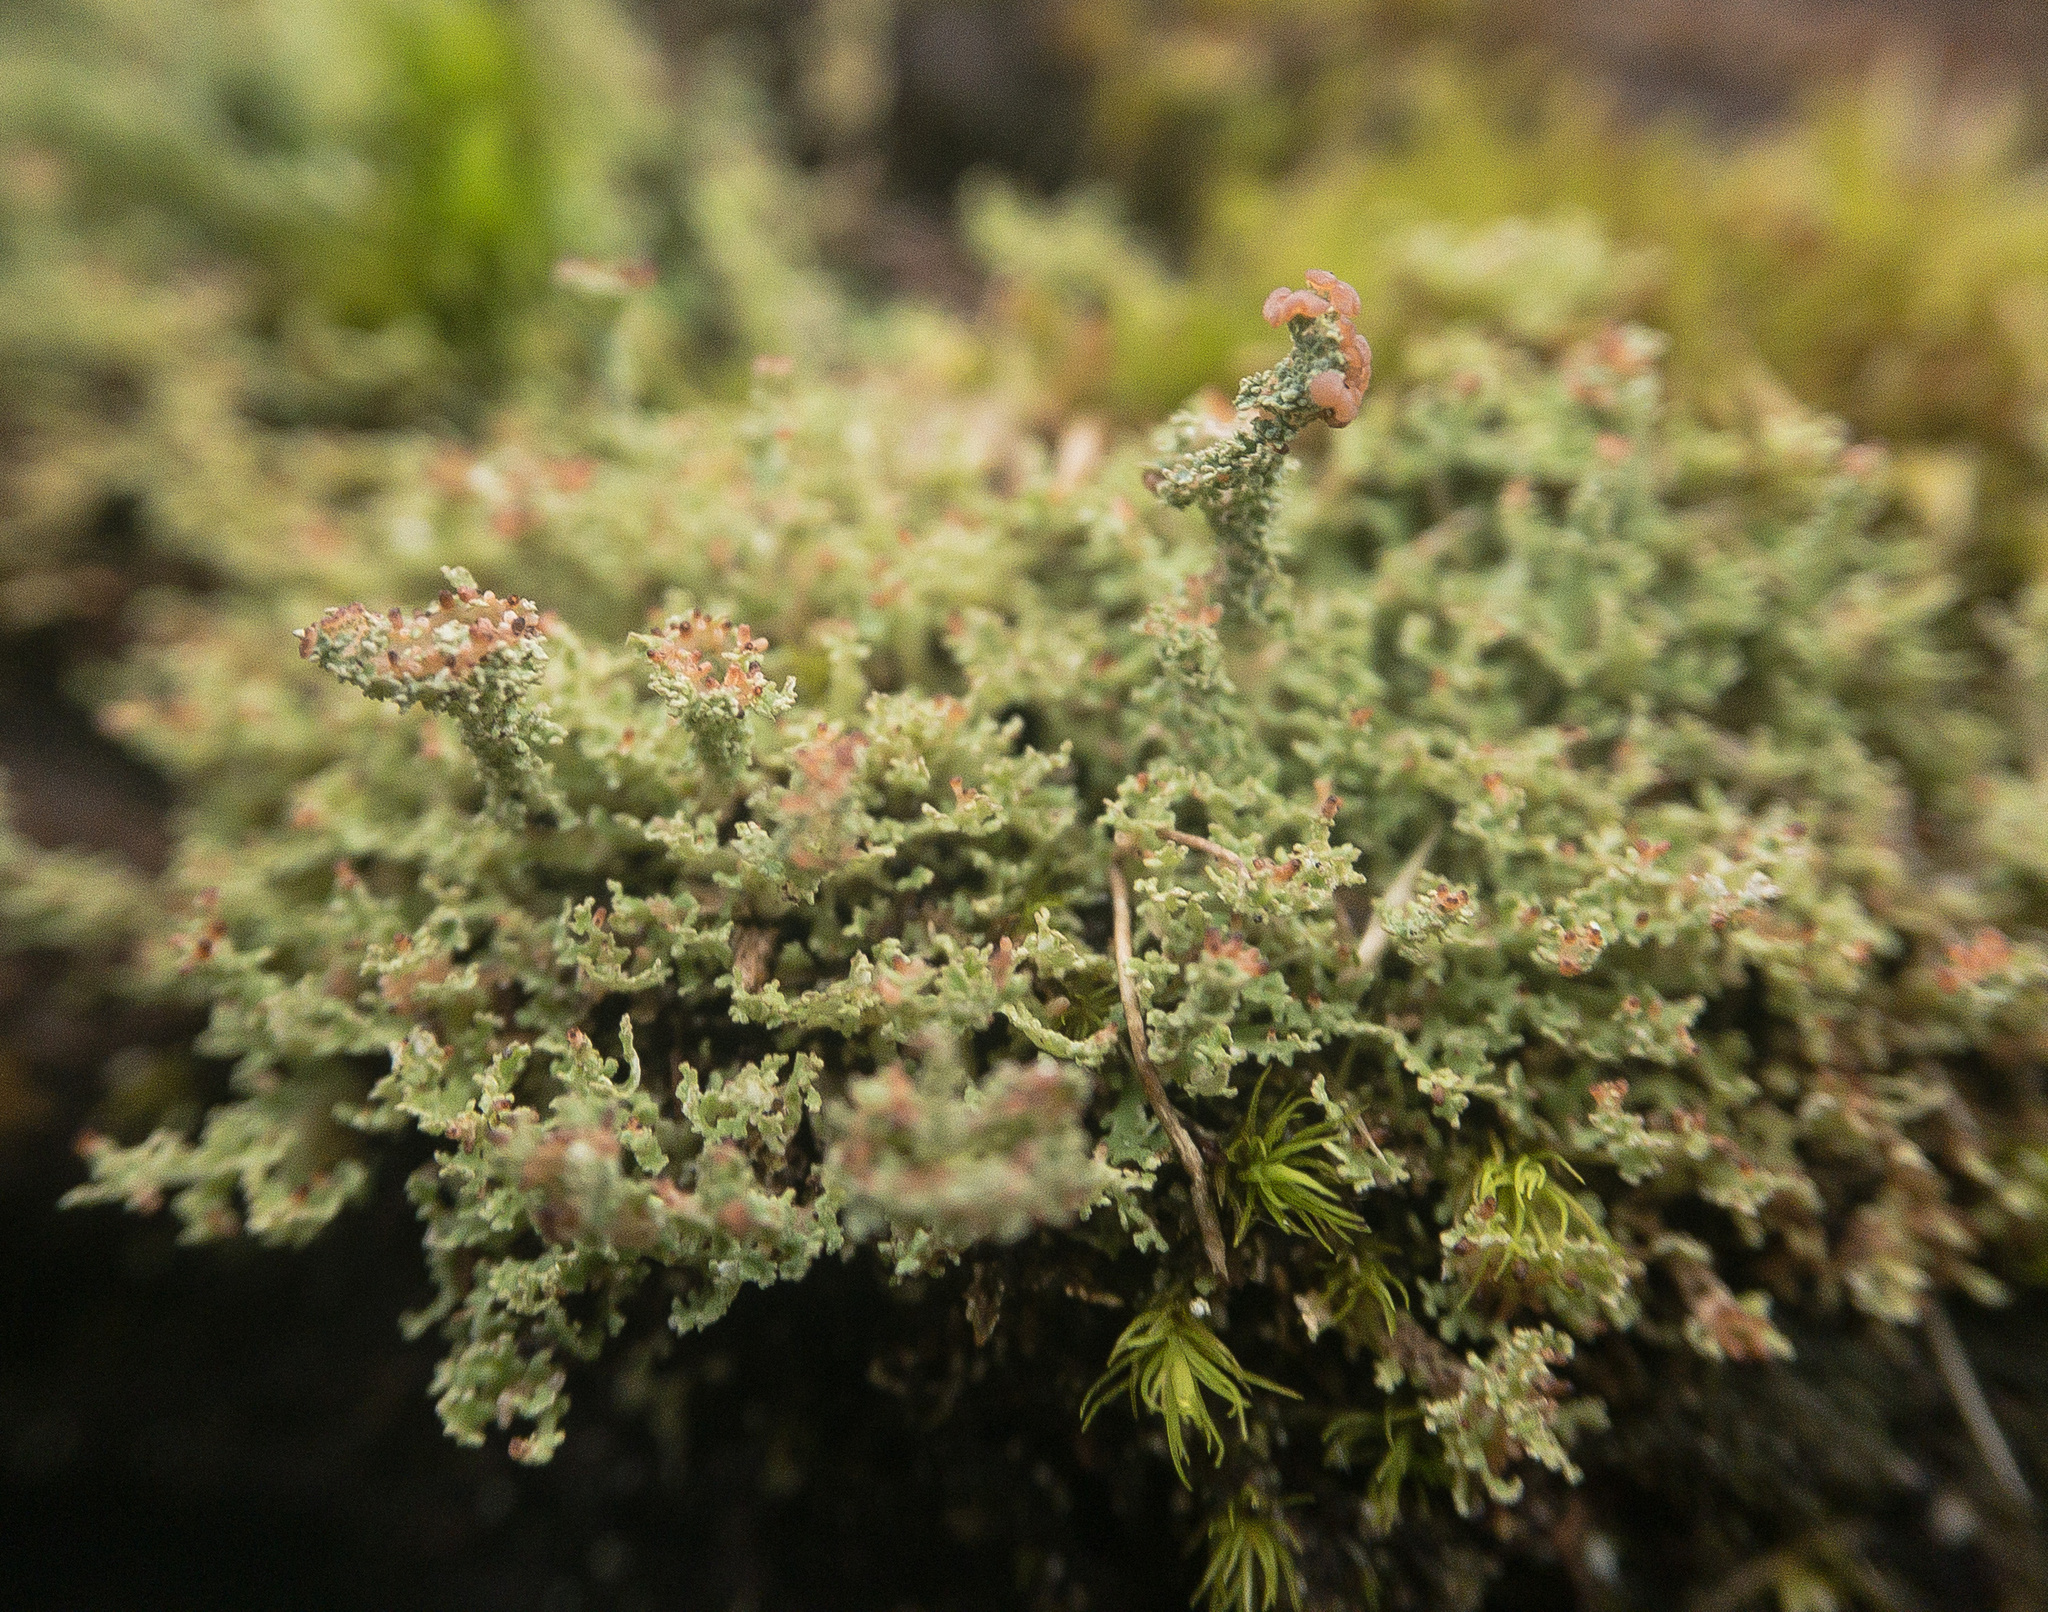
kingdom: Fungi
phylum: Ascomycota
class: Lecanoromycetes
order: Lecanorales
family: Cladoniaceae
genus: Cladonia
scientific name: Cladonia squamosa
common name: Dragon horn
